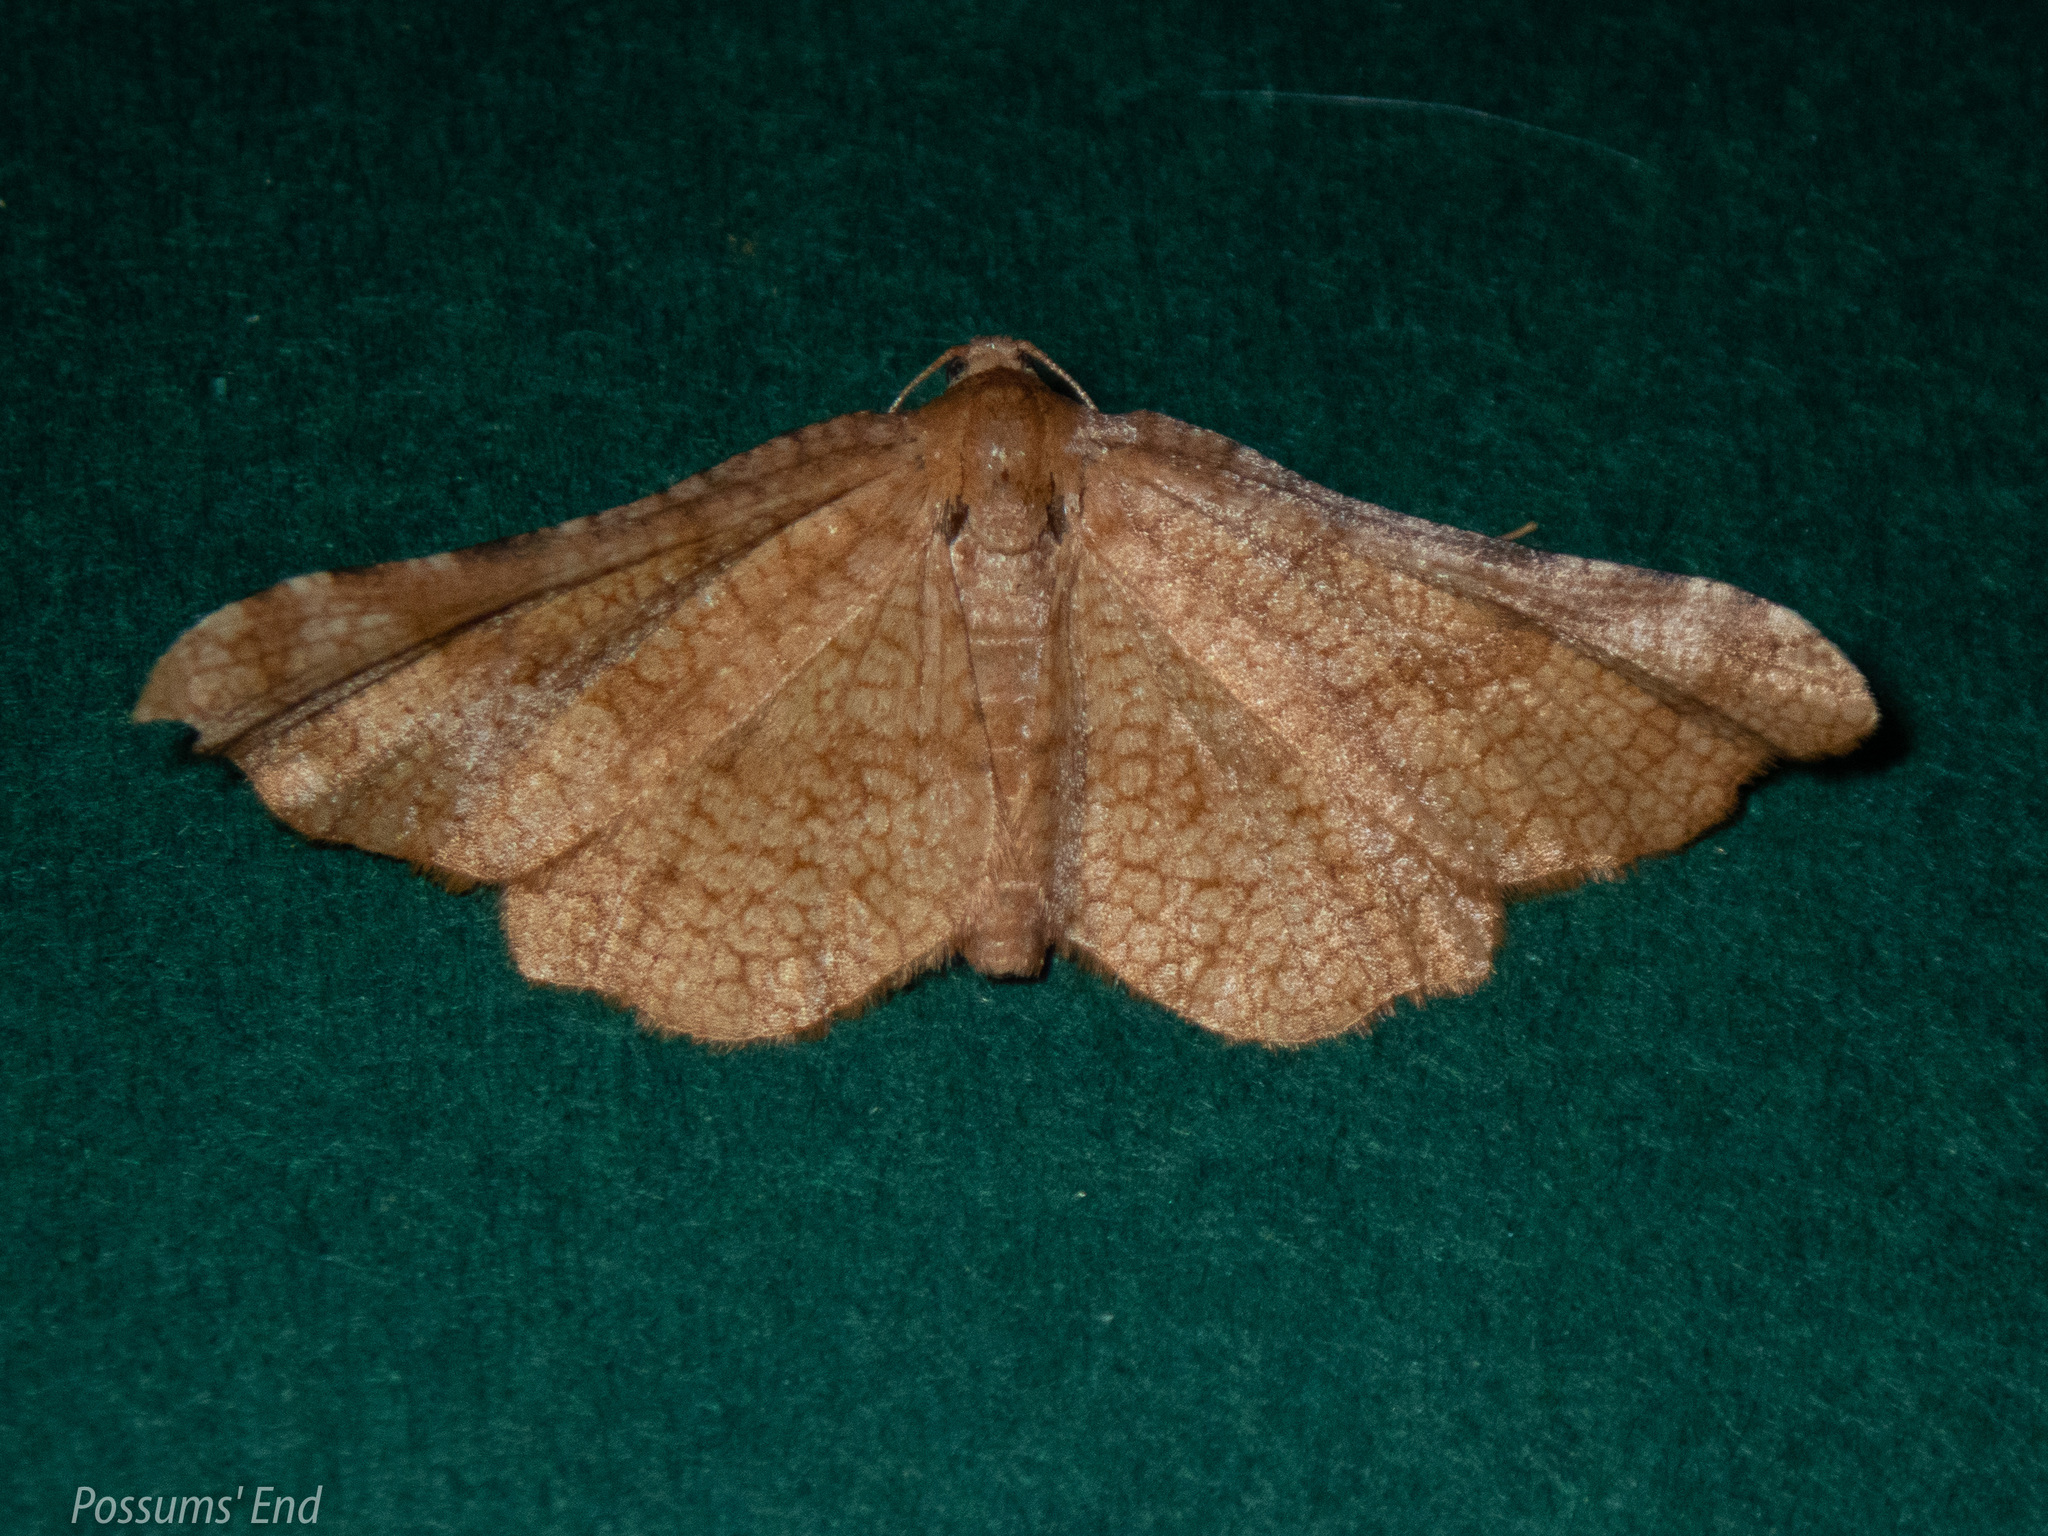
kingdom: Animalia
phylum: Arthropoda
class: Insecta
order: Lepidoptera
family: Thyrididae
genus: Morova
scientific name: Morova subfasciata
